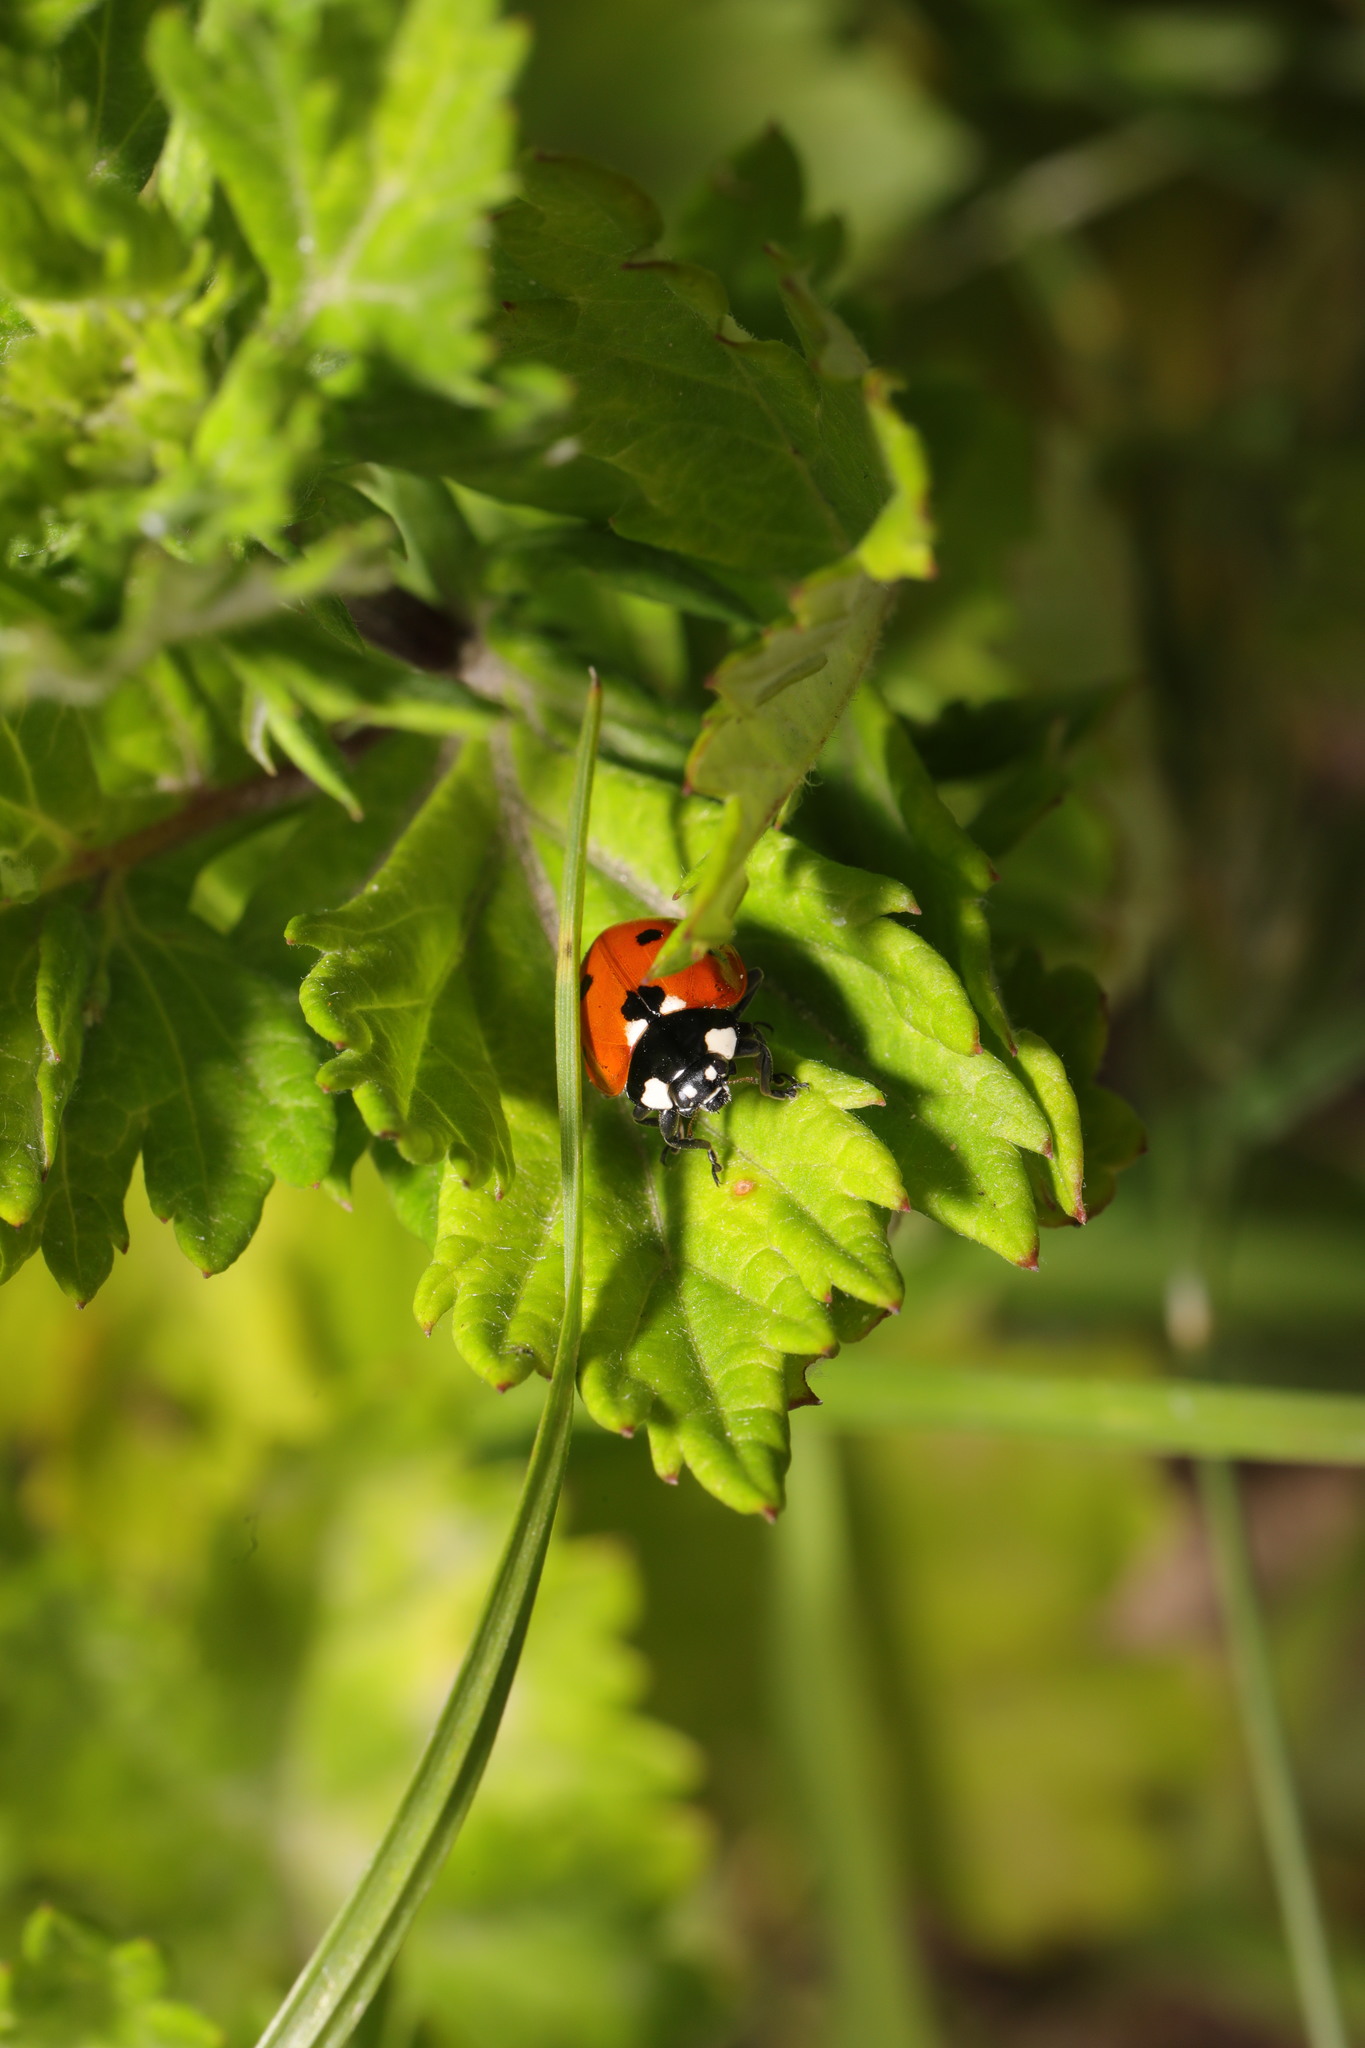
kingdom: Animalia
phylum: Arthropoda
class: Insecta
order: Coleoptera
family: Coccinellidae
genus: Coccinella
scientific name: Coccinella septempunctata
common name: Sevenspotted lady beetle
